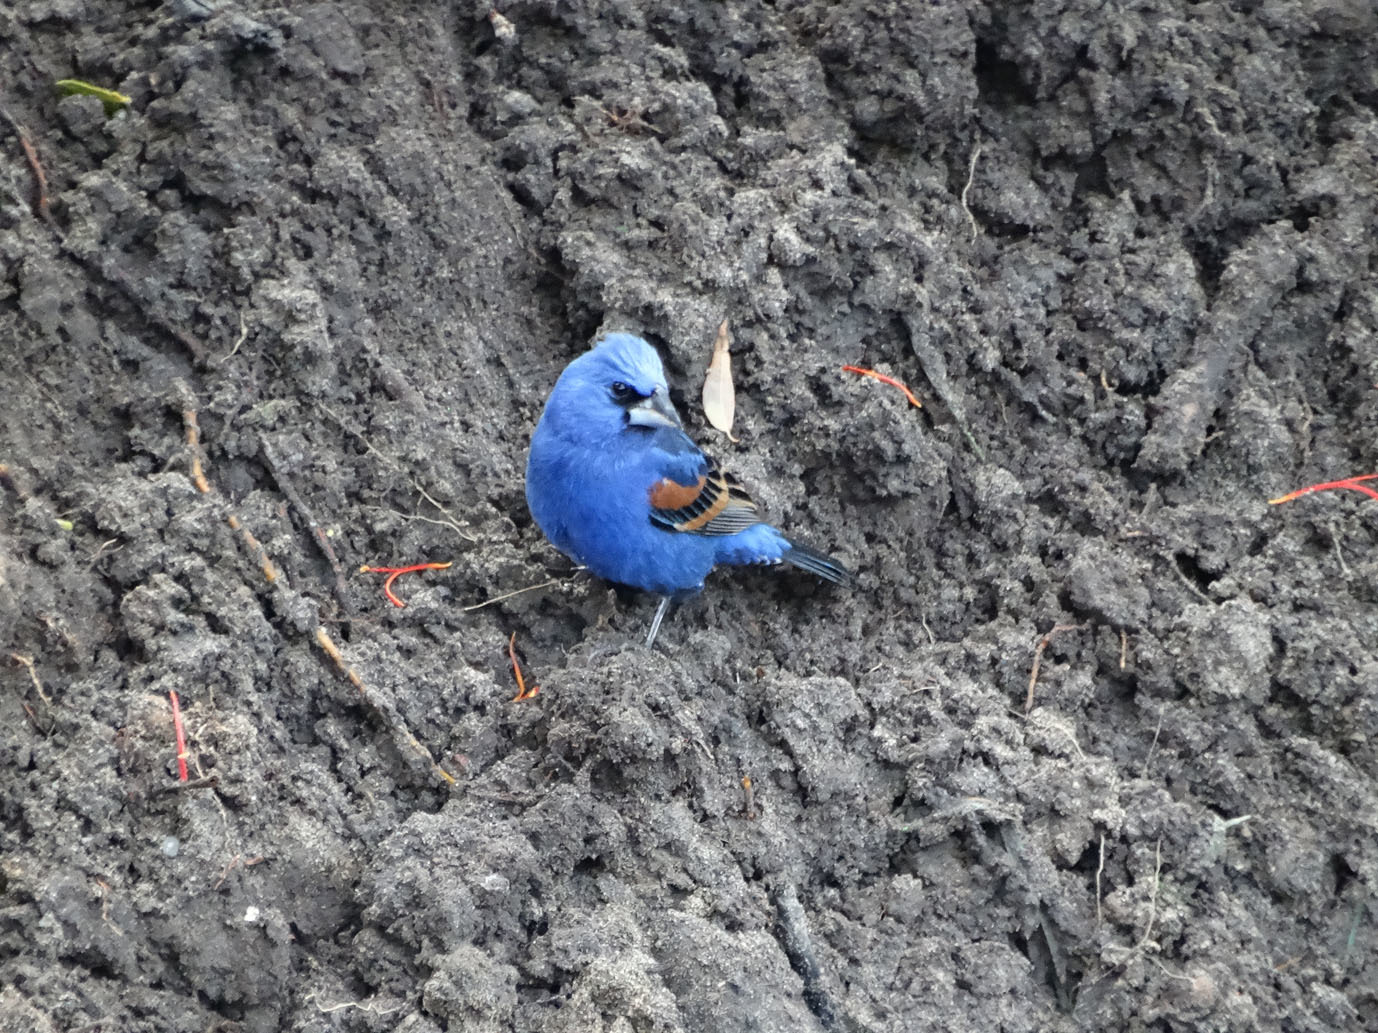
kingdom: Animalia
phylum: Chordata
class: Aves
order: Passeriformes
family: Cardinalidae
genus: Passerina
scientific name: Passerina caerulea
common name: Blue grosbeak
